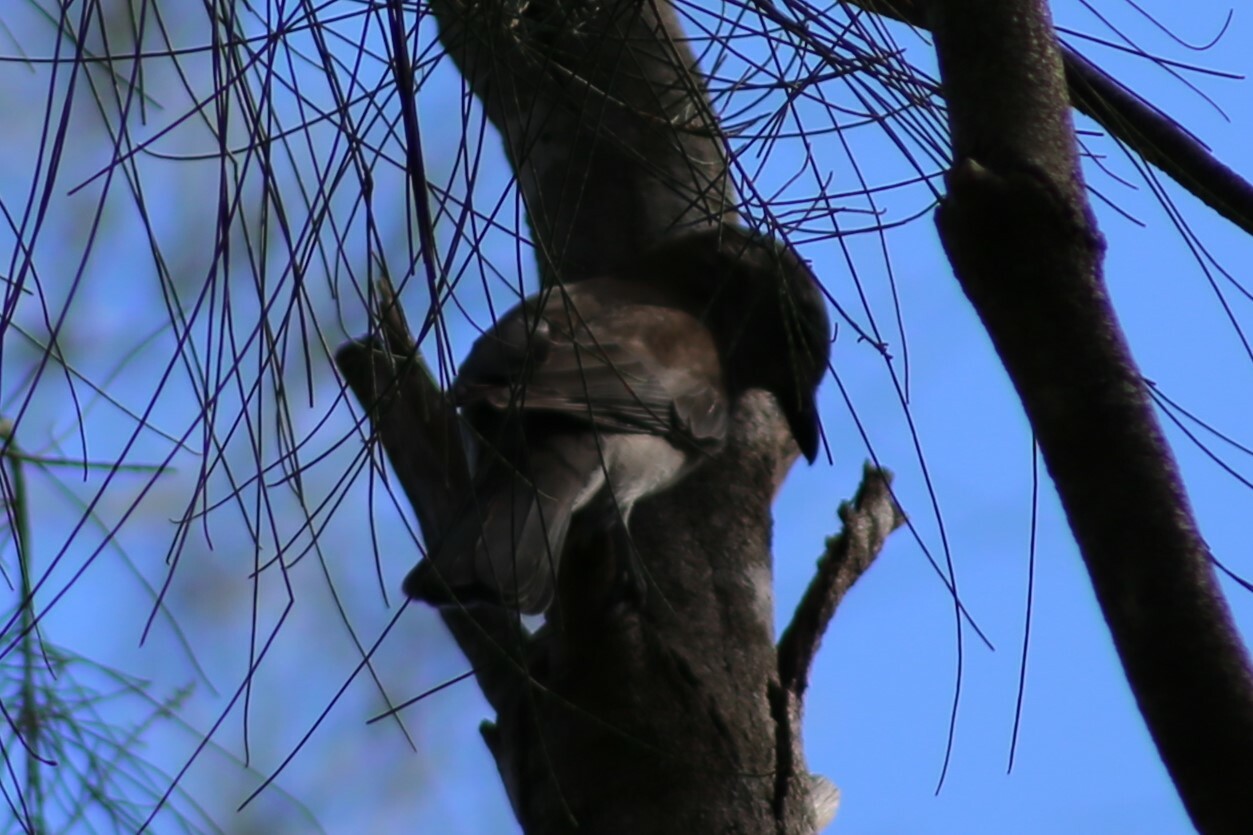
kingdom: Animalia
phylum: Chordata
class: Aves
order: Passeriformes
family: Pachycephalidae
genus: Colluricincla
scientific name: Colluricincla harmonica
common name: Grey shrikethrush
